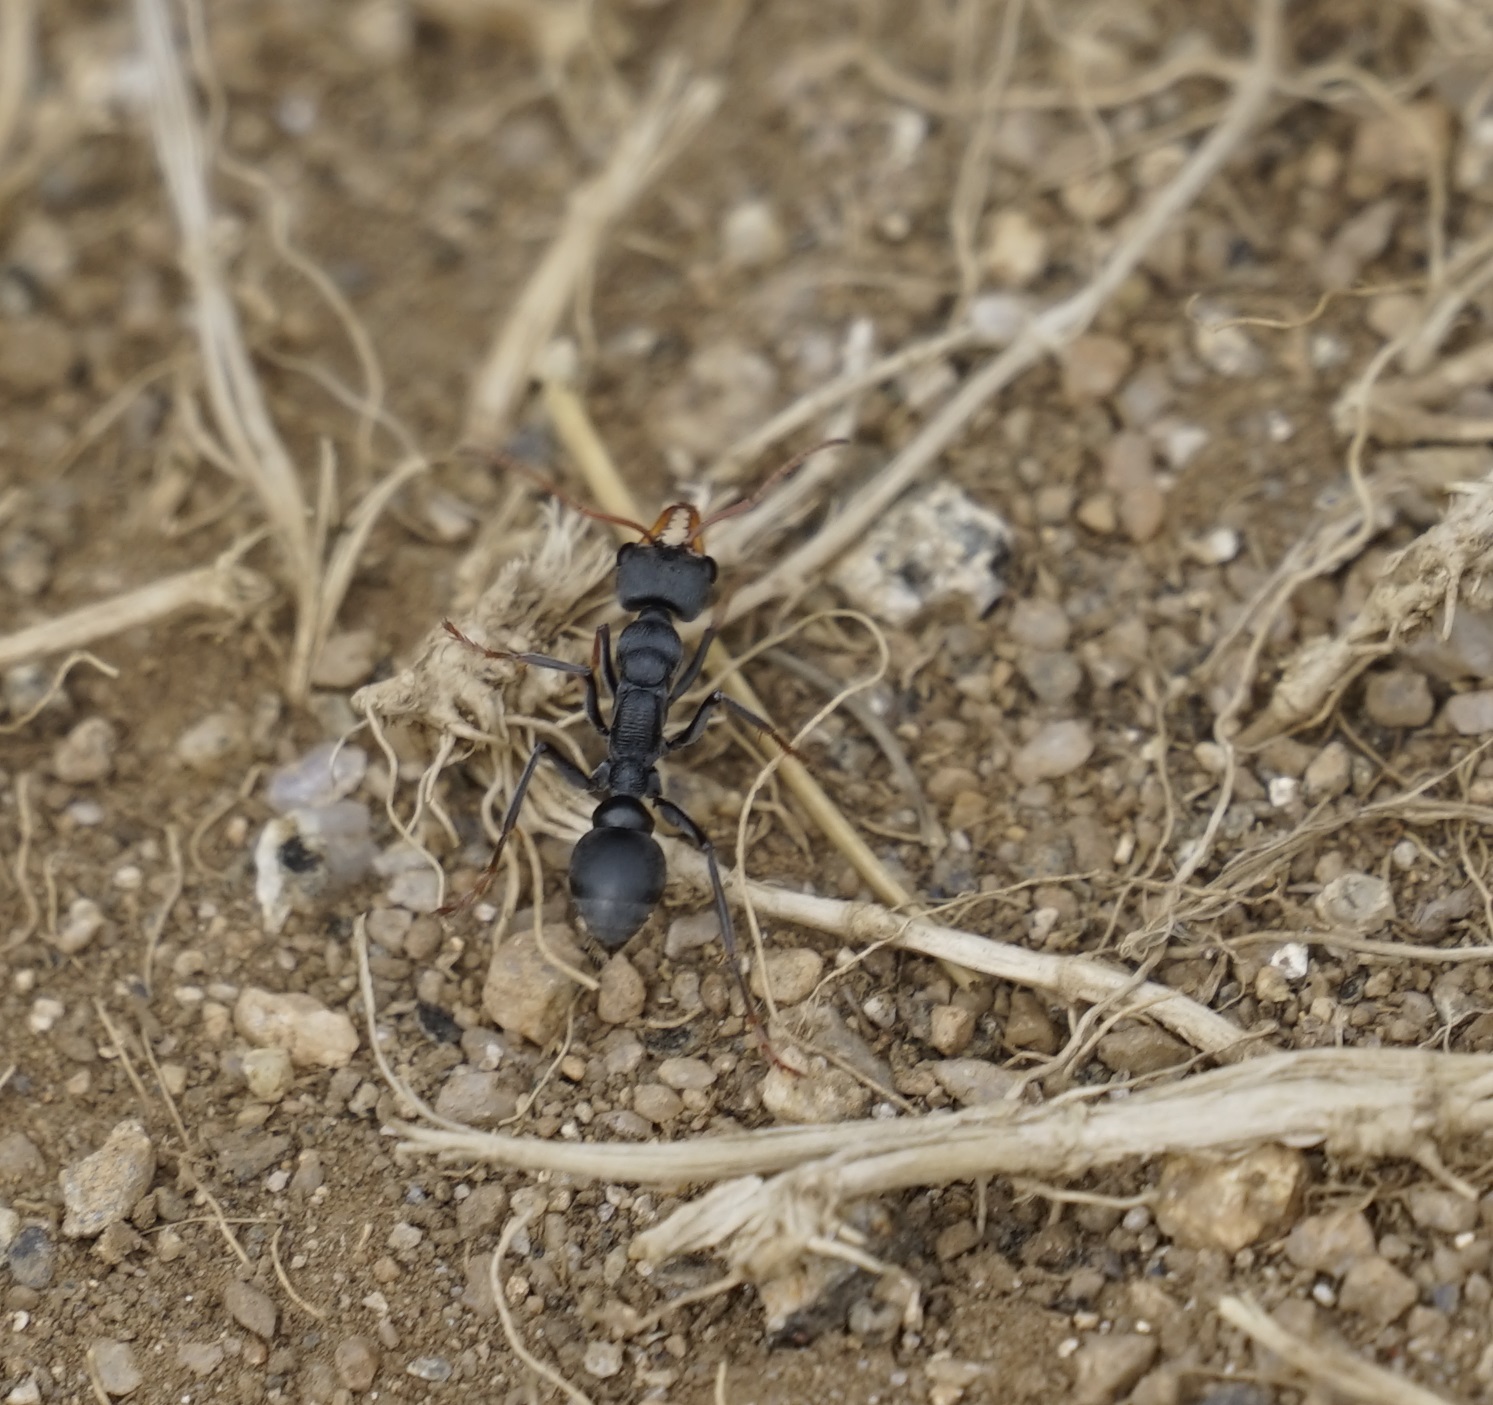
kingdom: Animalia
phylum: Arthropoda
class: Insecta
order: Hymenoptera
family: Formicidae
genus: Myrmecia
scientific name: Myrmecia haskinsorum
